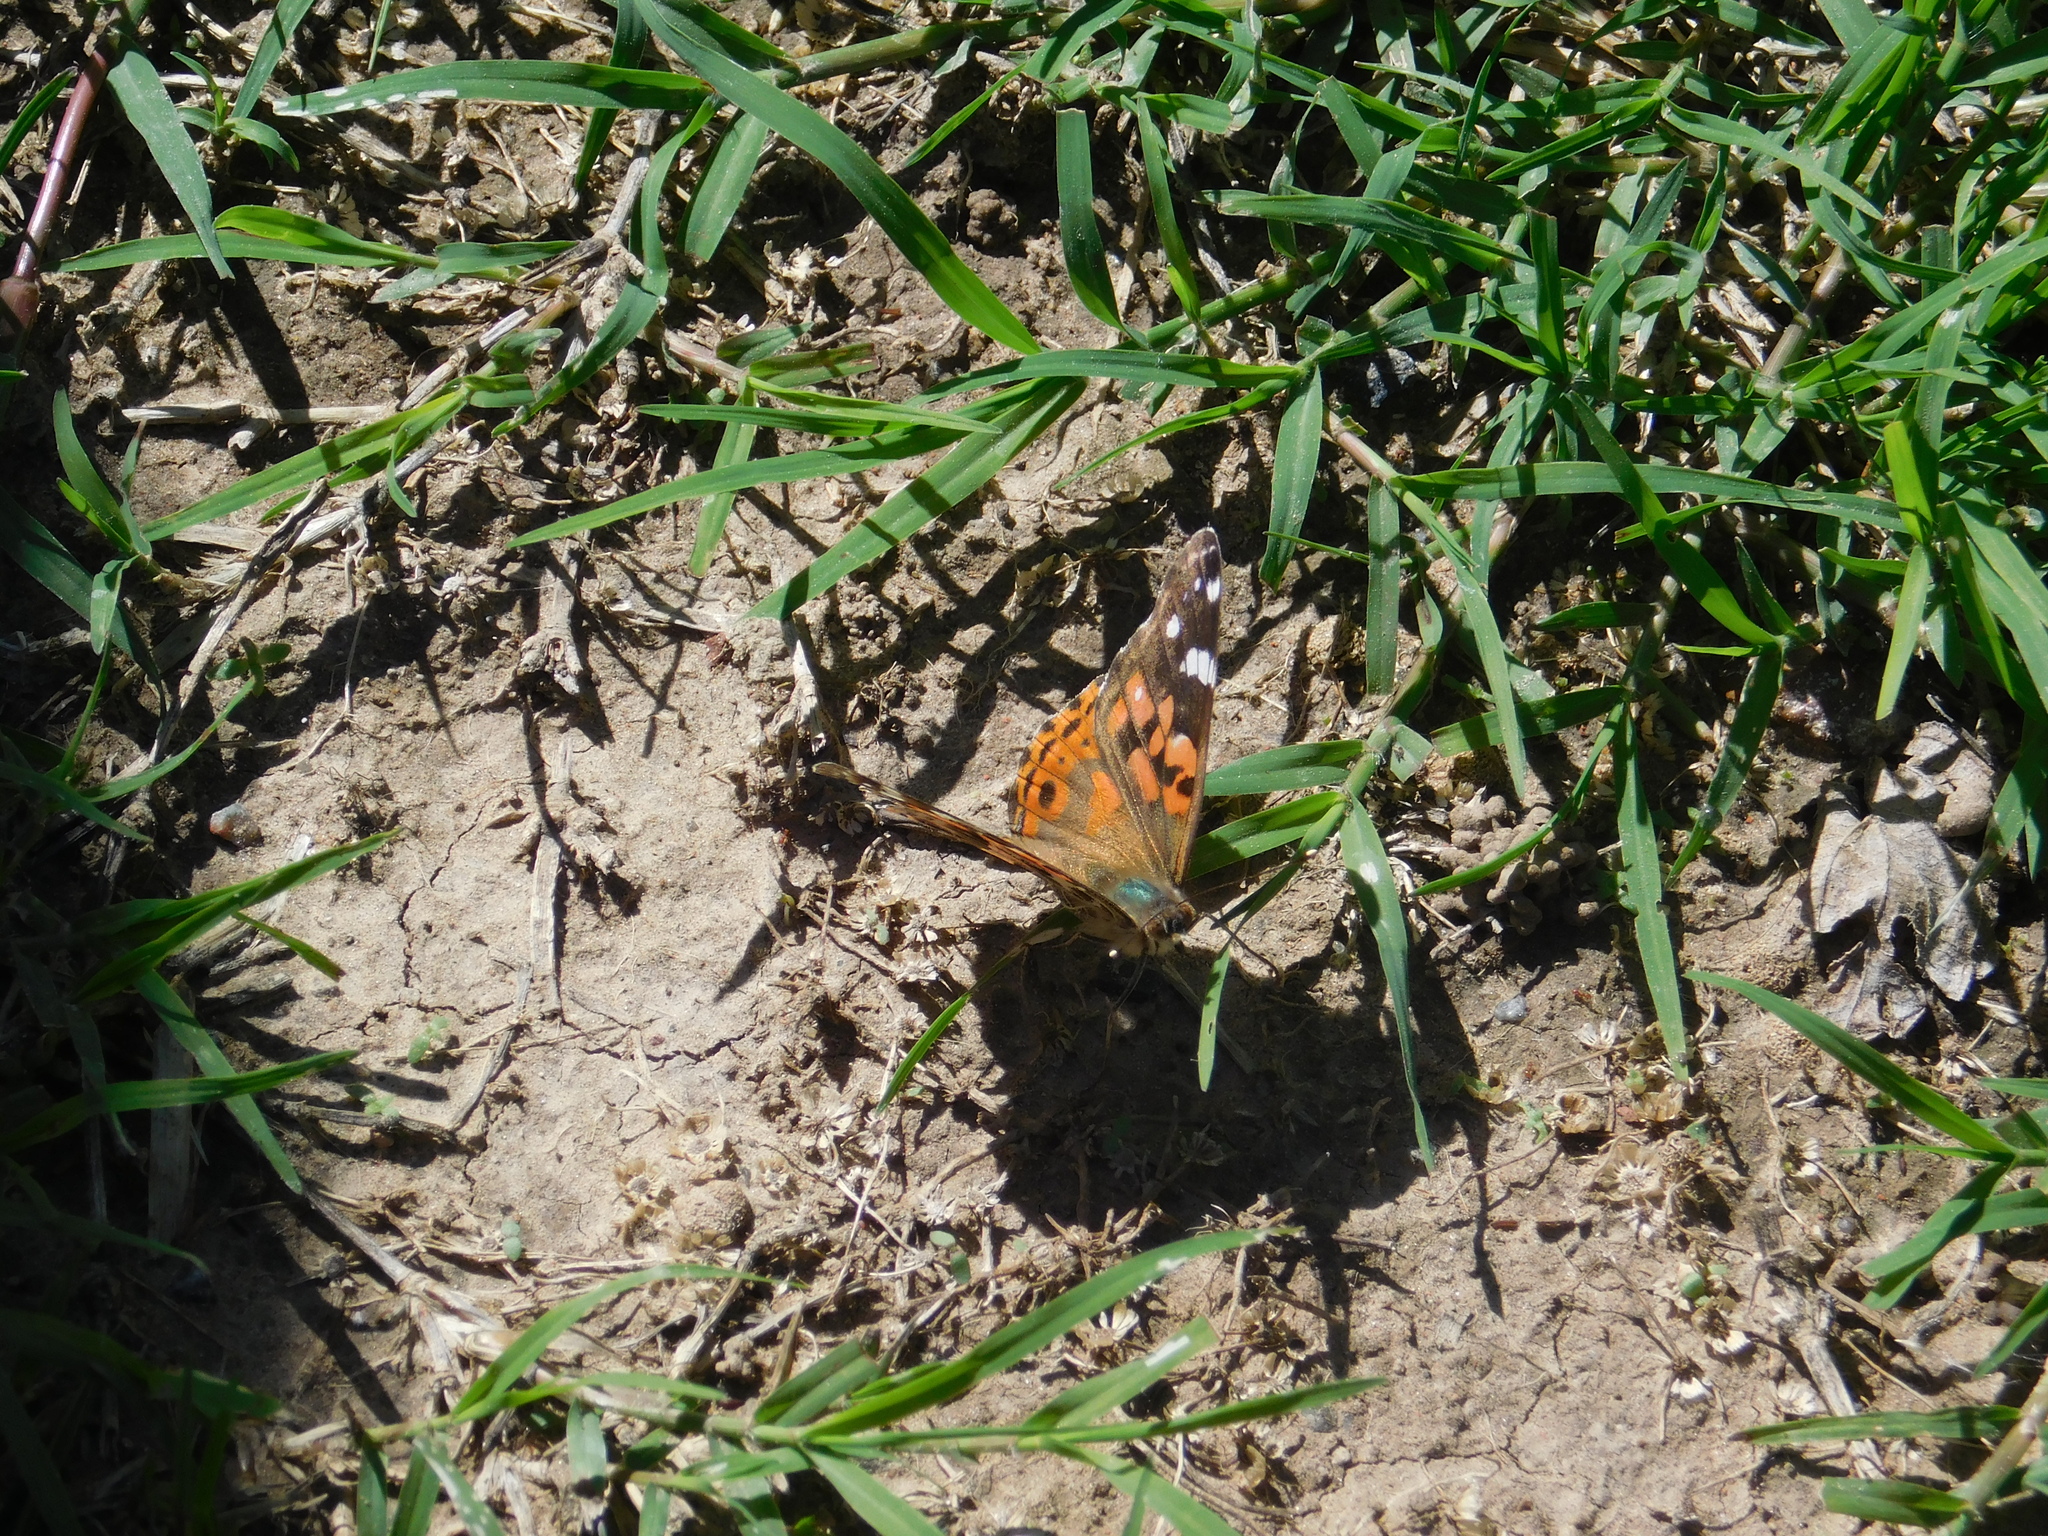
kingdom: Animalia
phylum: Arthropoda
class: Insecta
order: Lepidoptera
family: Nymphalidae
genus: Vanessa
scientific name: Vanessa braziliensis
